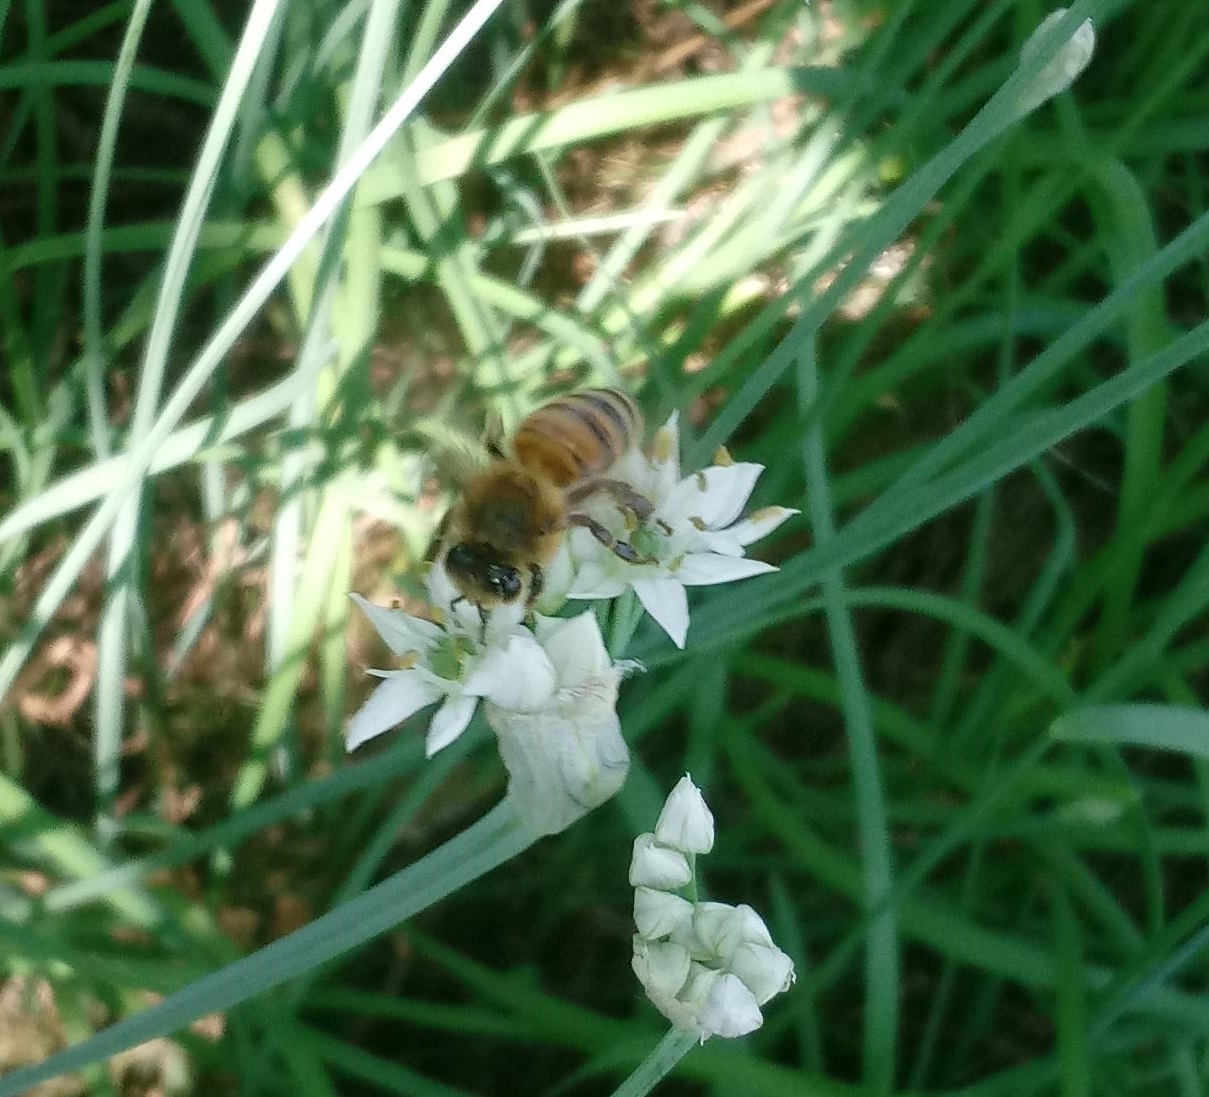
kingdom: Animalia
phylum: Arthropoda
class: Insecta
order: Hymenoptera
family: Apidae
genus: Apis
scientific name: Apis mellifera
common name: Honey bee
